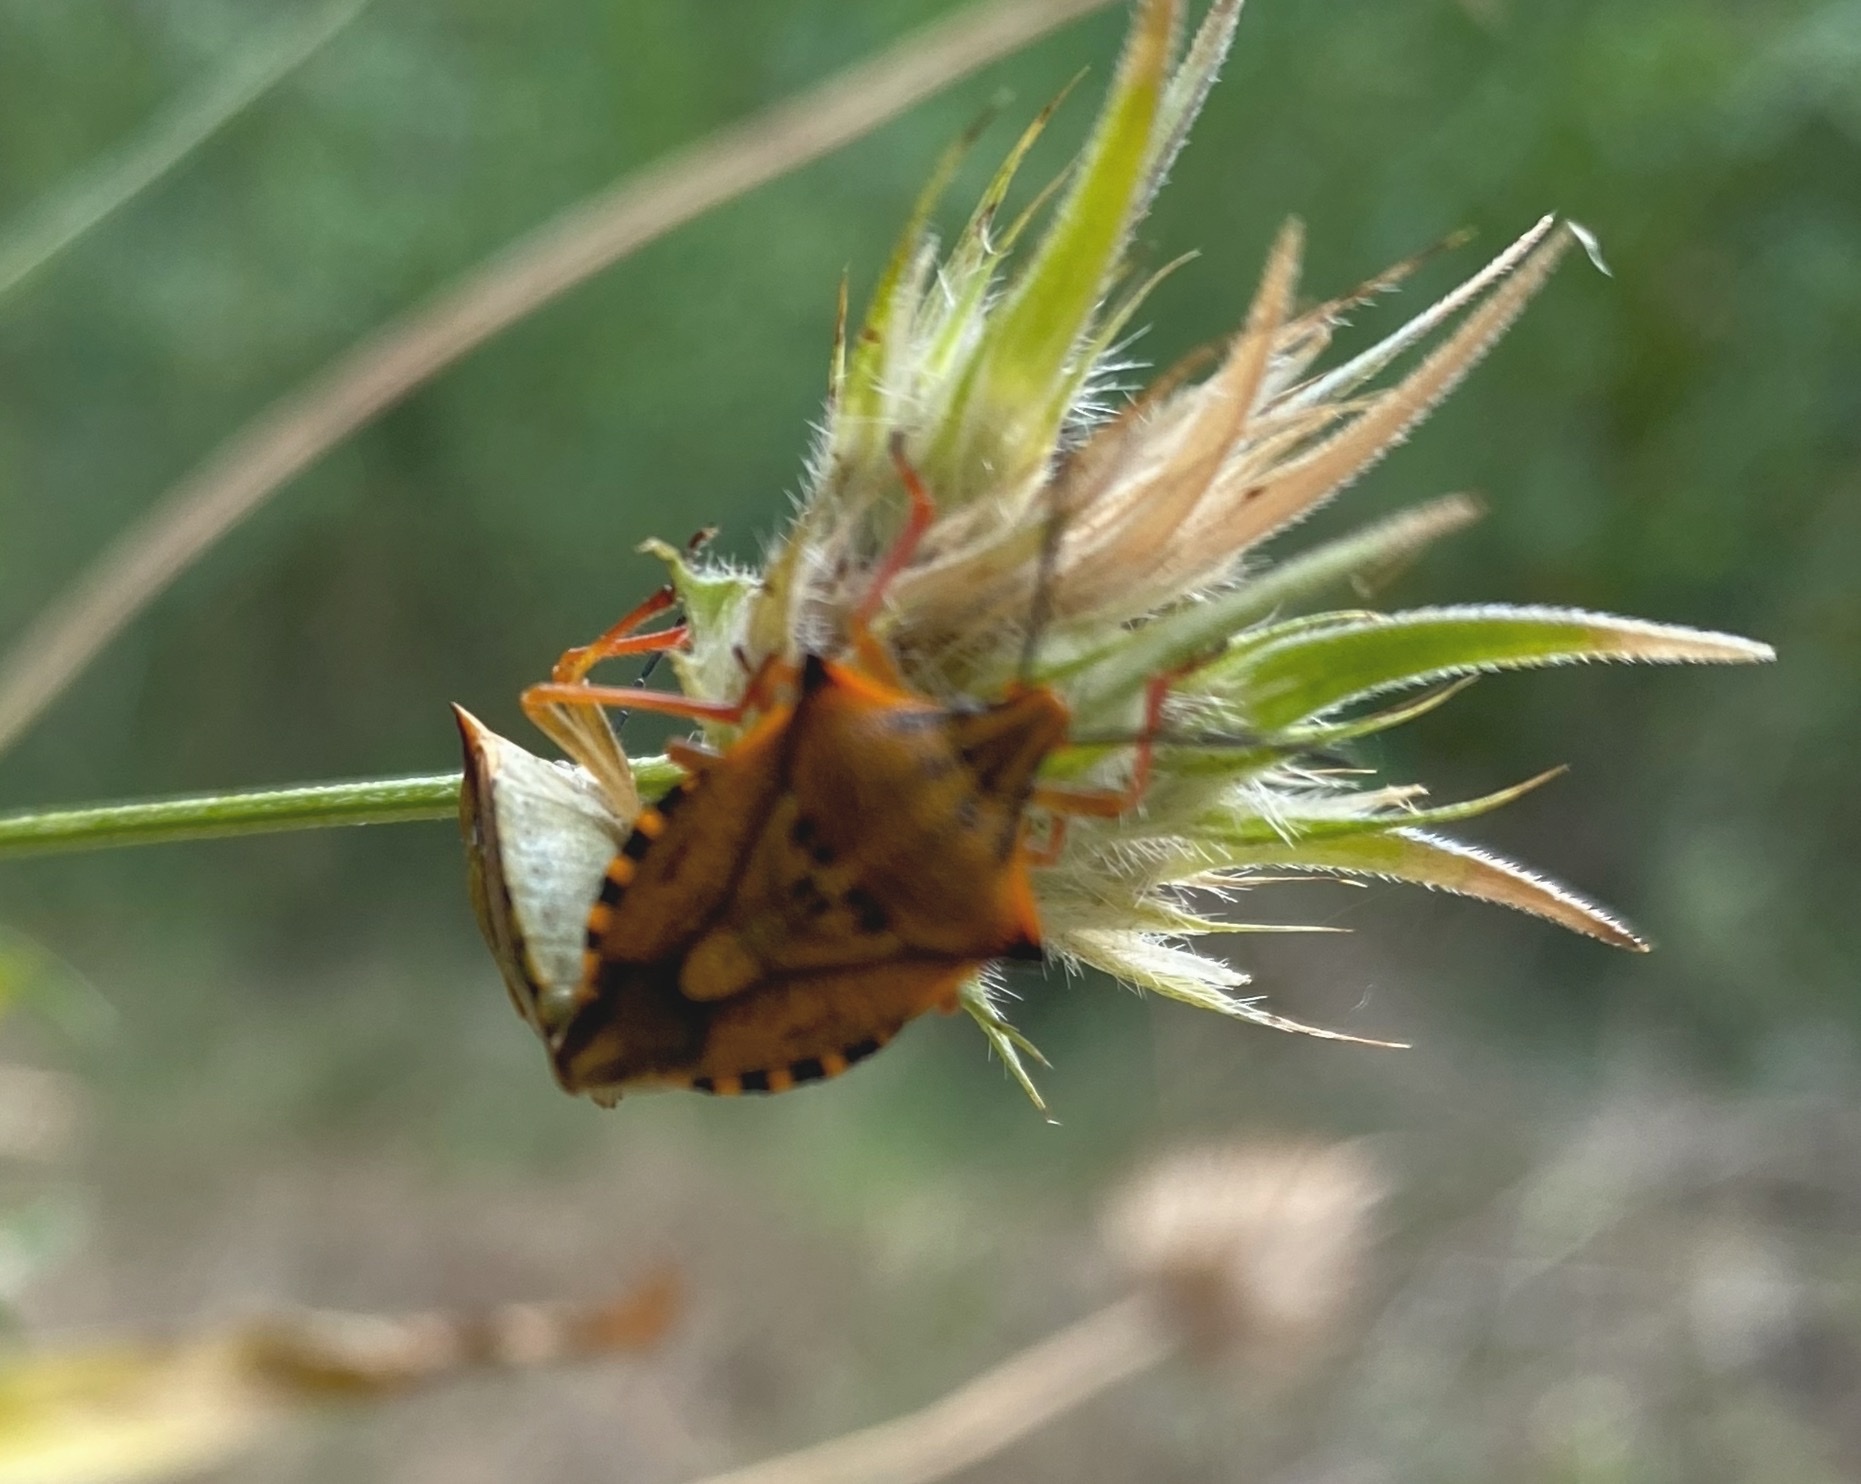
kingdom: Animalia
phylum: Arthropoda
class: Insecta
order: Hemiptera
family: Pentatomidae
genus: Carpocoris
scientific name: Carpocoris mediterraneus
